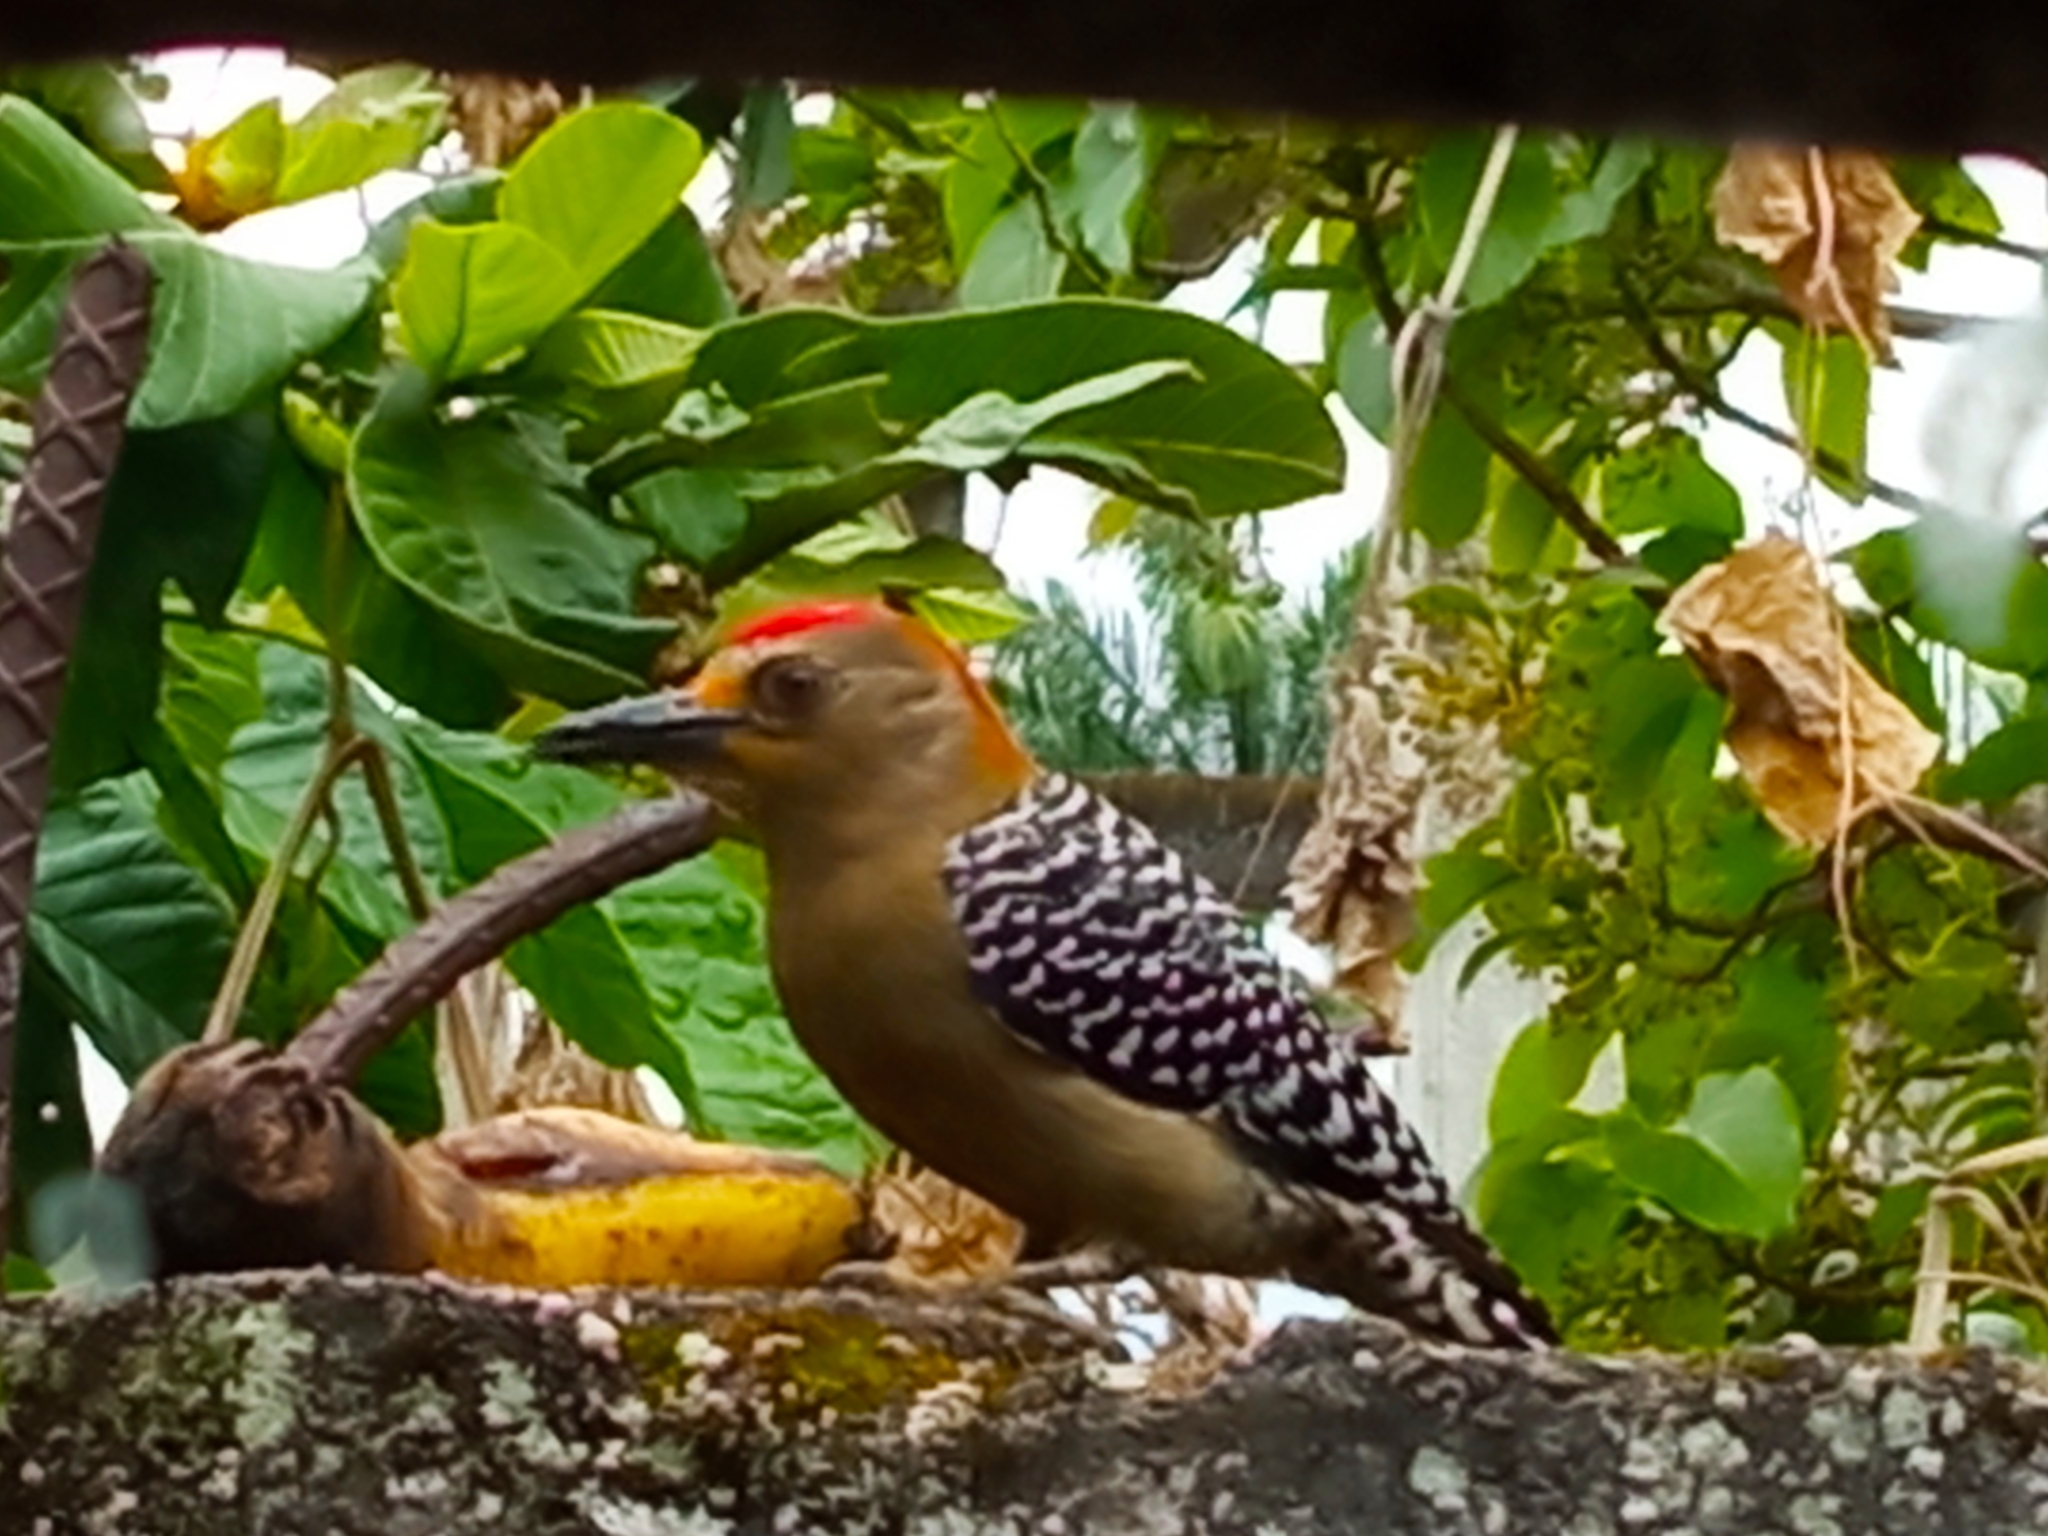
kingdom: Animalia
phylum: Chordata
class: Aves
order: Piciformes
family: Picidae
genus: Melanerpes
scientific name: Melanerpes rubricapillus
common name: Red-crowned woodpecker
